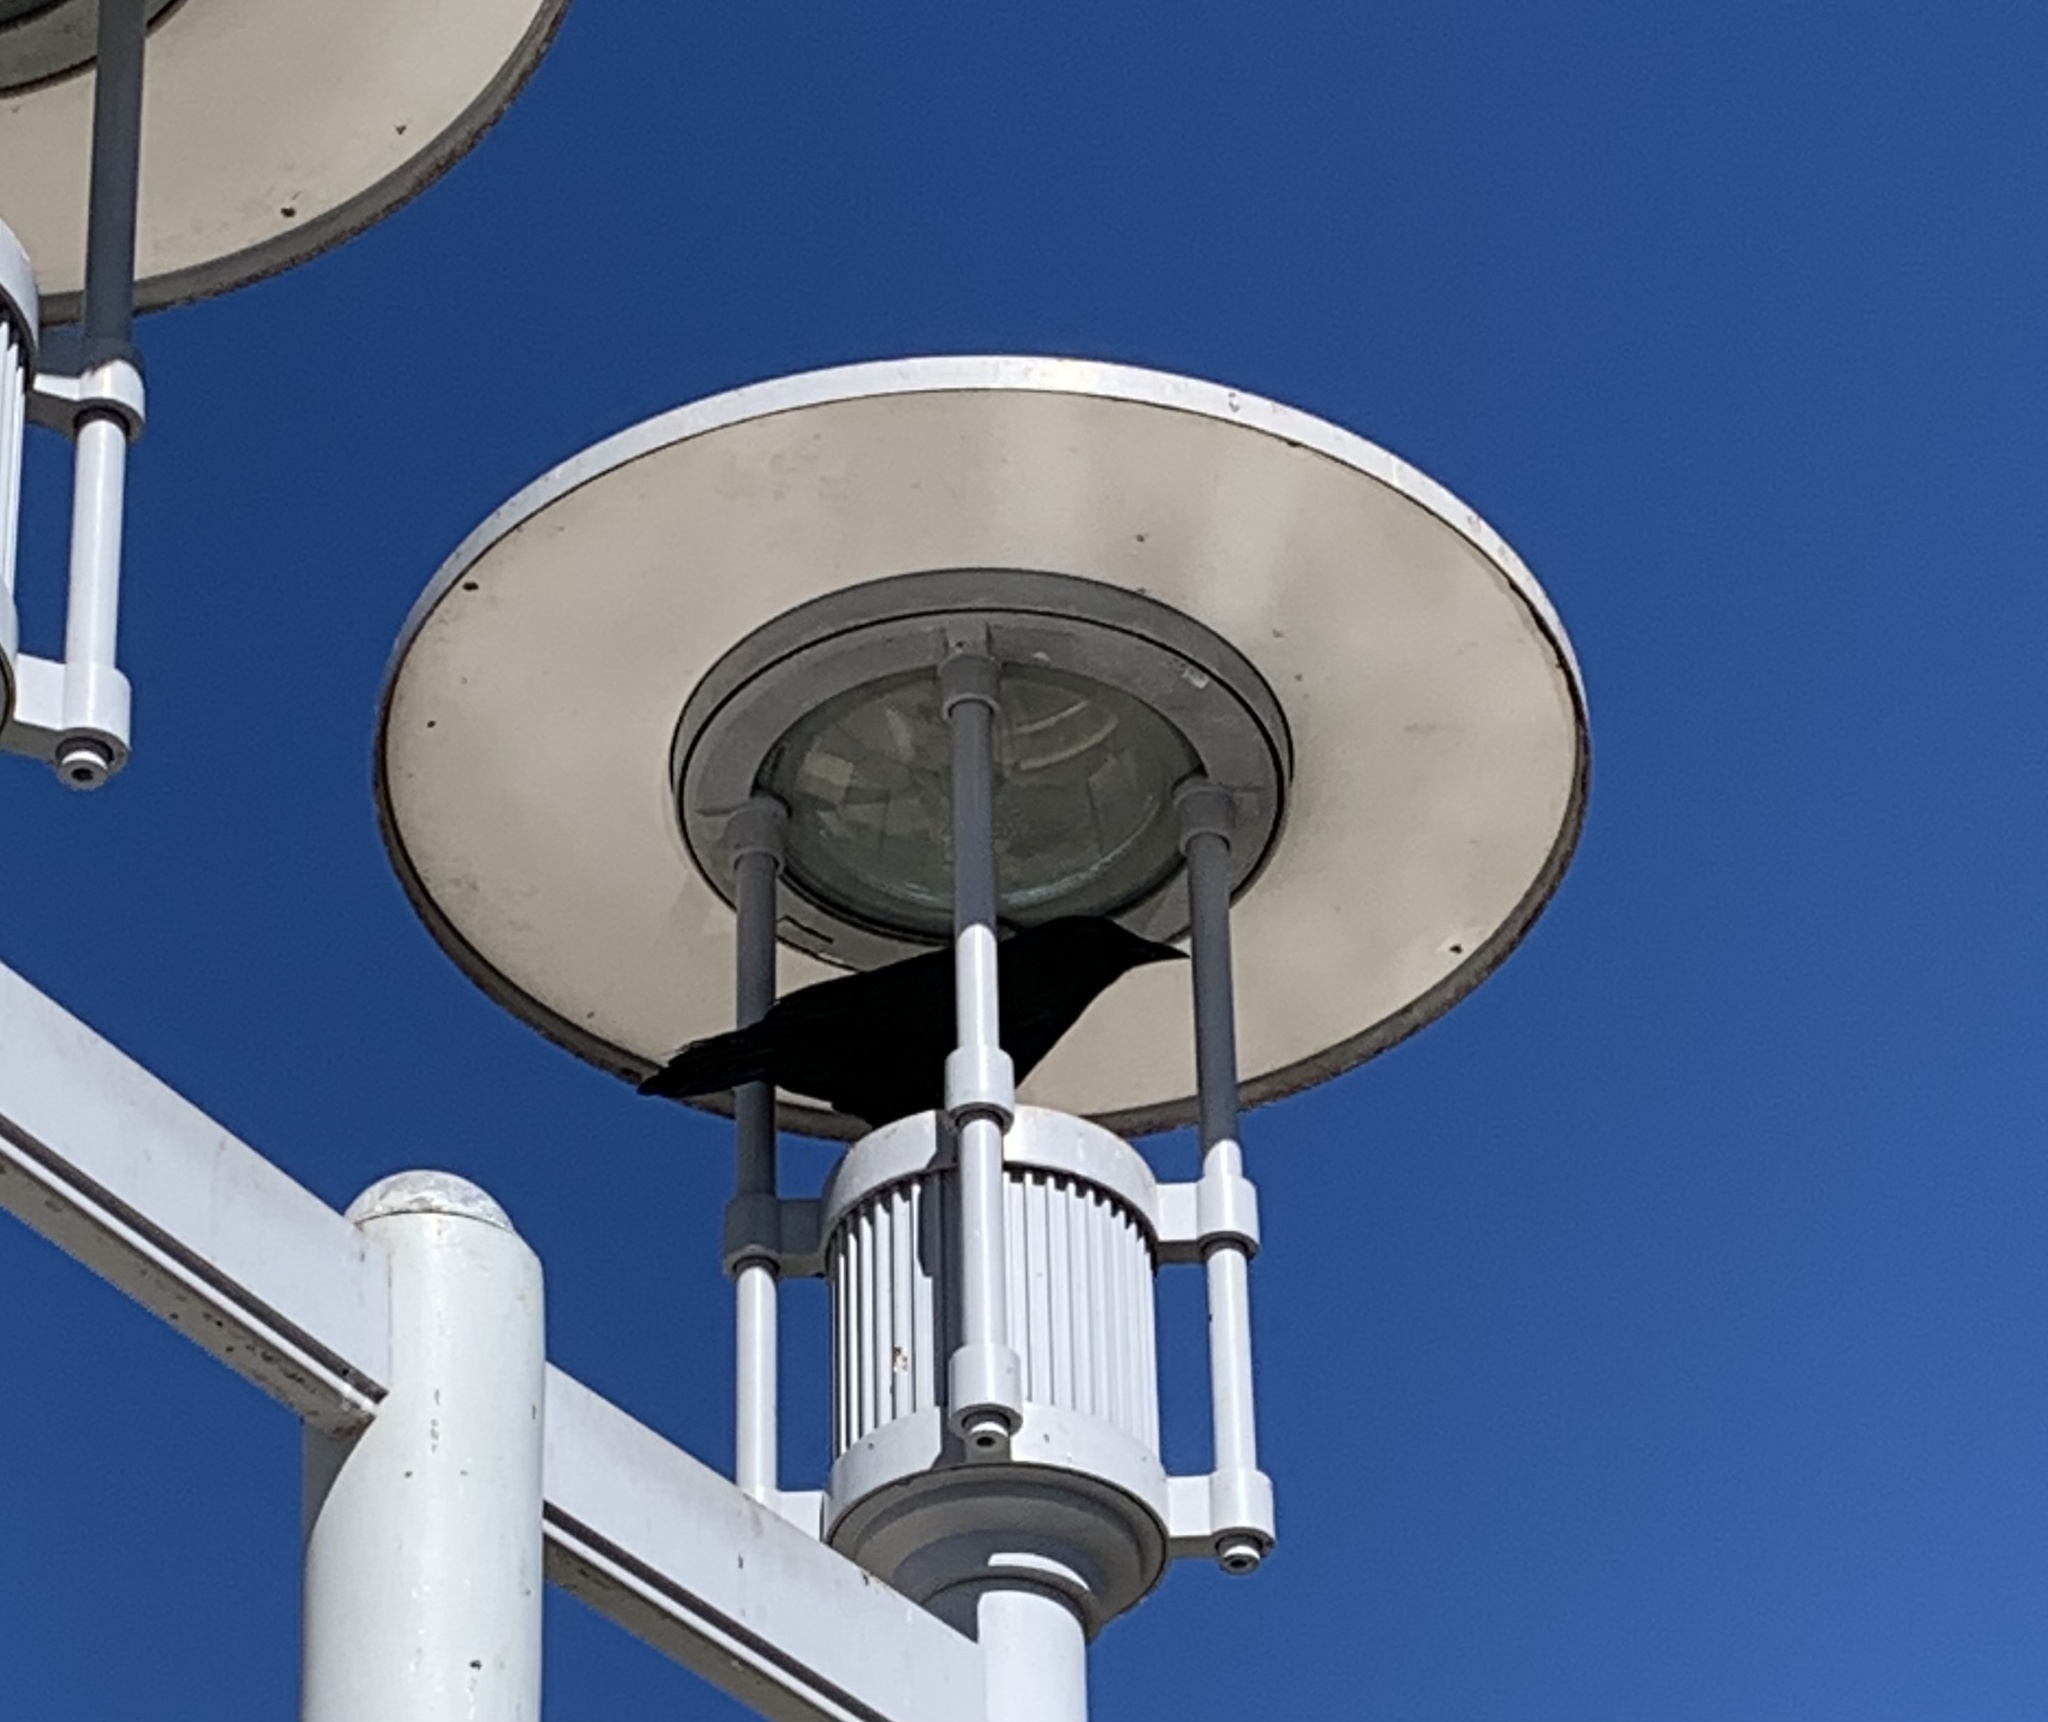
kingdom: Animalia
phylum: Chordata
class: Aves
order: Passeriformes
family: Corvidae
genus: Corvus
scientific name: Corvus ossifragus
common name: Fish crow
